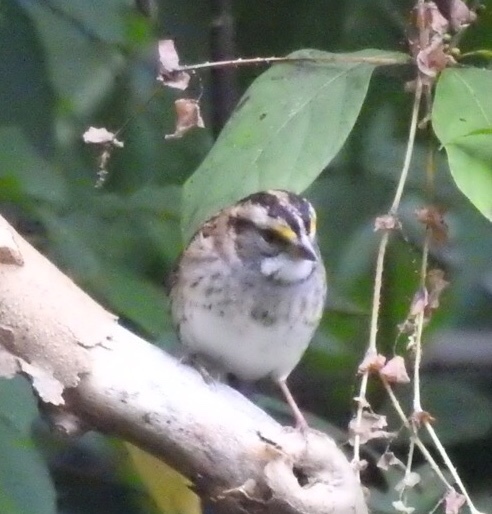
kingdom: Animalia
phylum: Chordata
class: Aves
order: Passeriformes
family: Passerellidae
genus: Zonotrichia
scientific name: Zonotrichia albicollis
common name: White-throated sparrow
